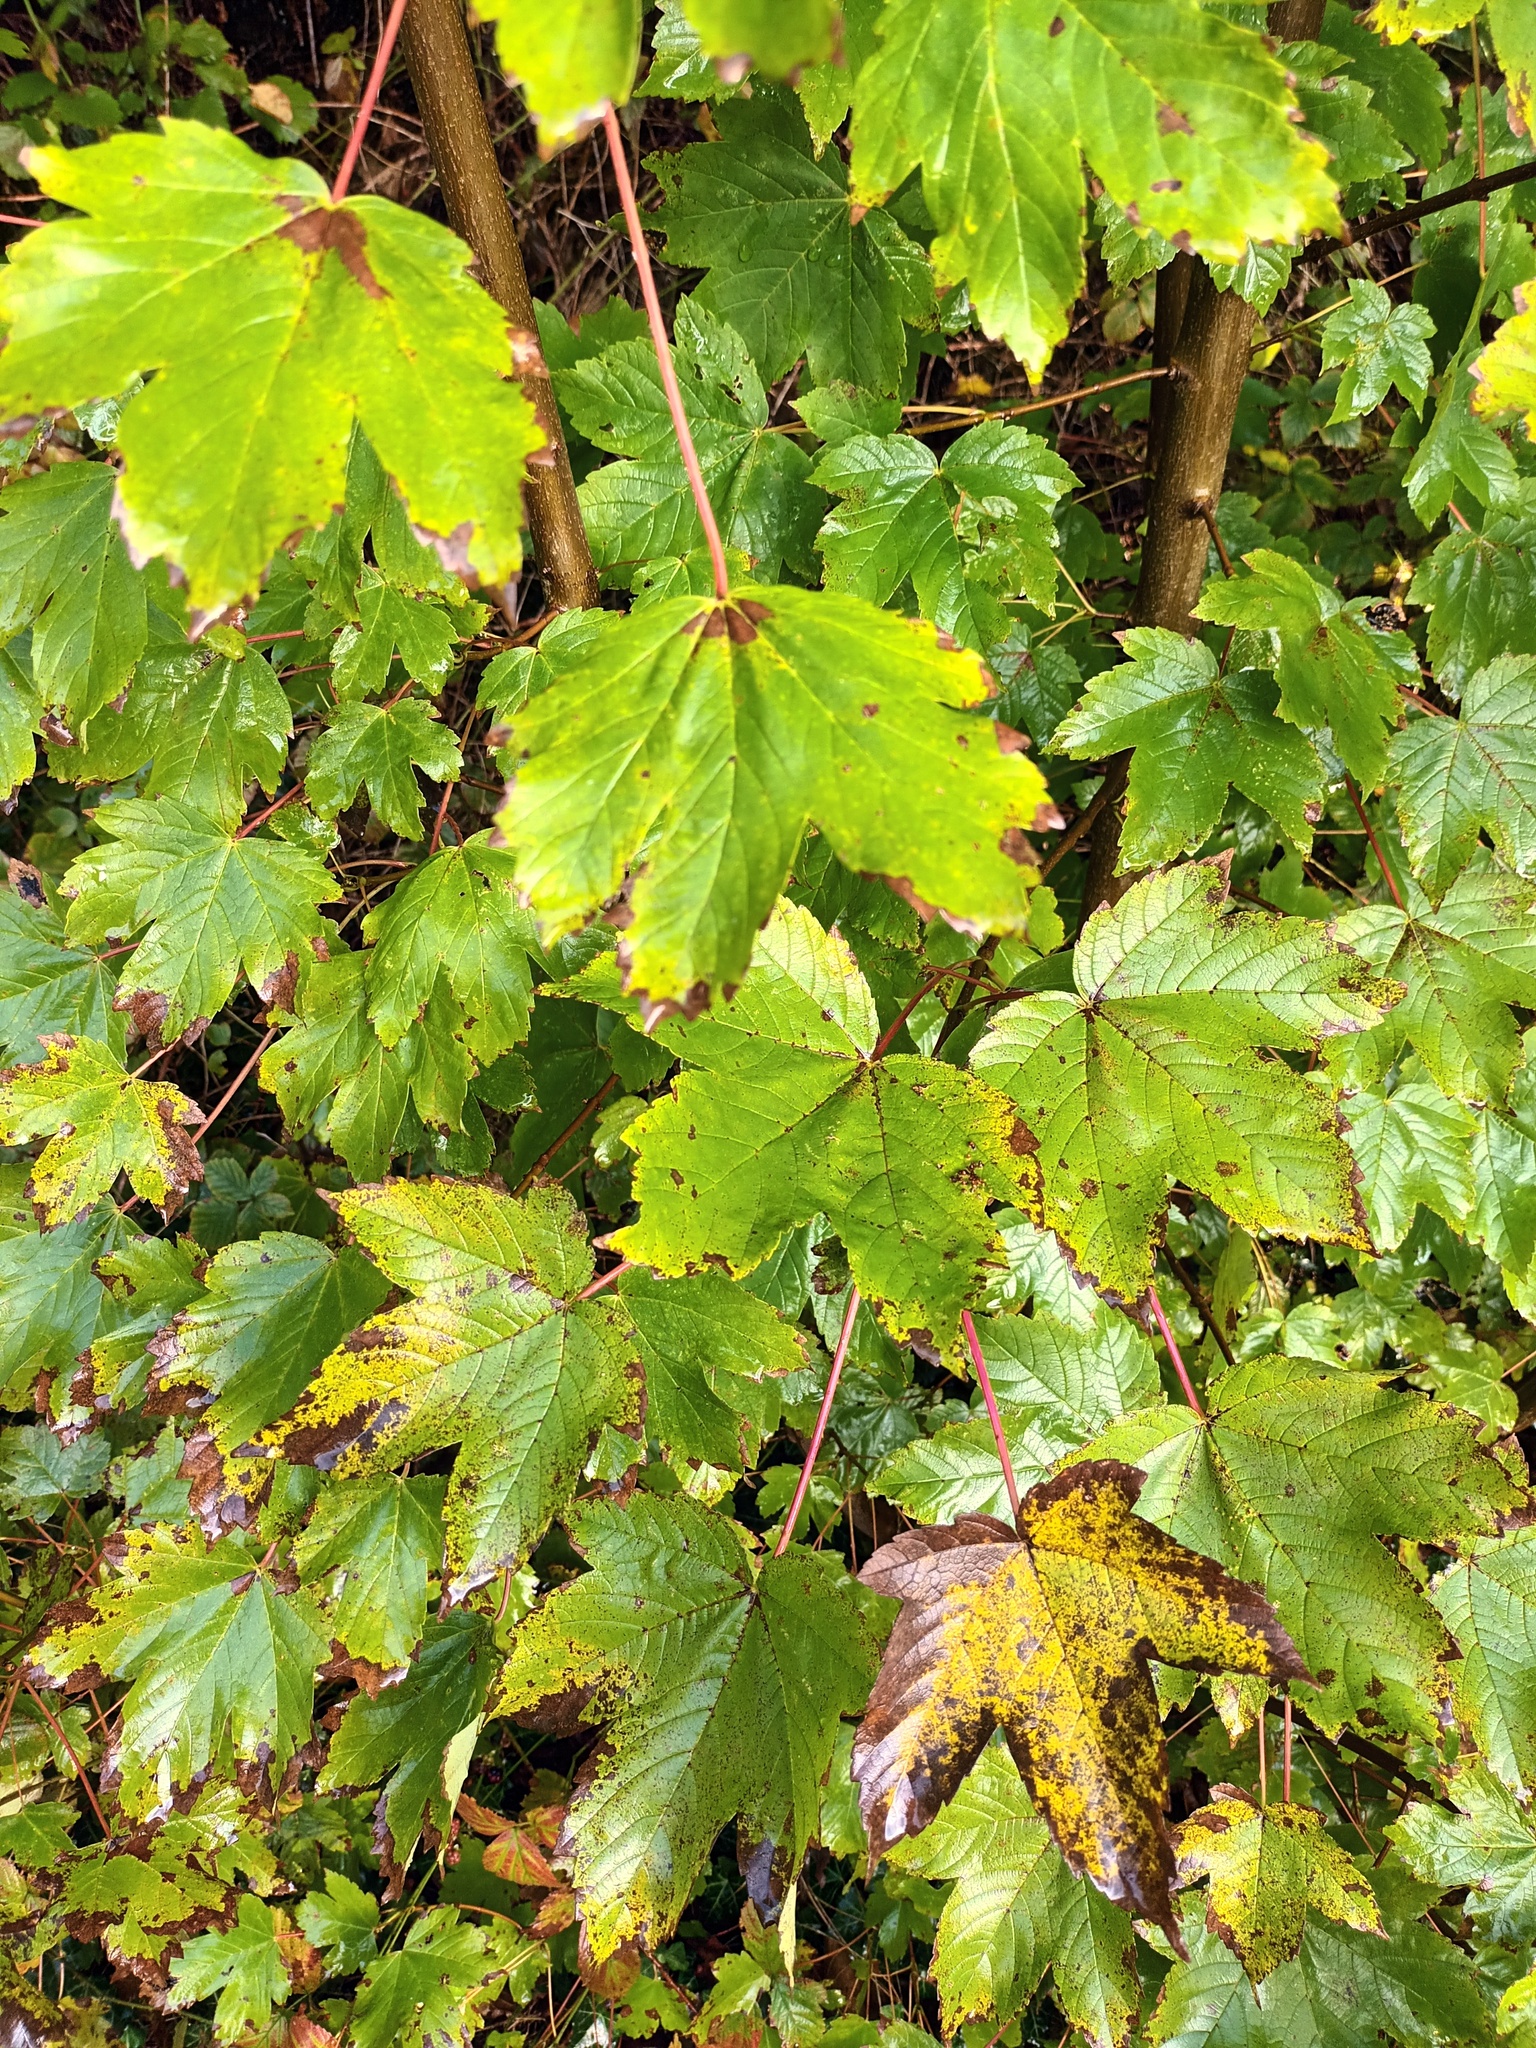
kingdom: Plantae
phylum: Tracheophyta
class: Magnoliopsida
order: Sapindales
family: Sapindaceae
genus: Acer
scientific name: Acer pseudoplatanus
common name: Sycamore
